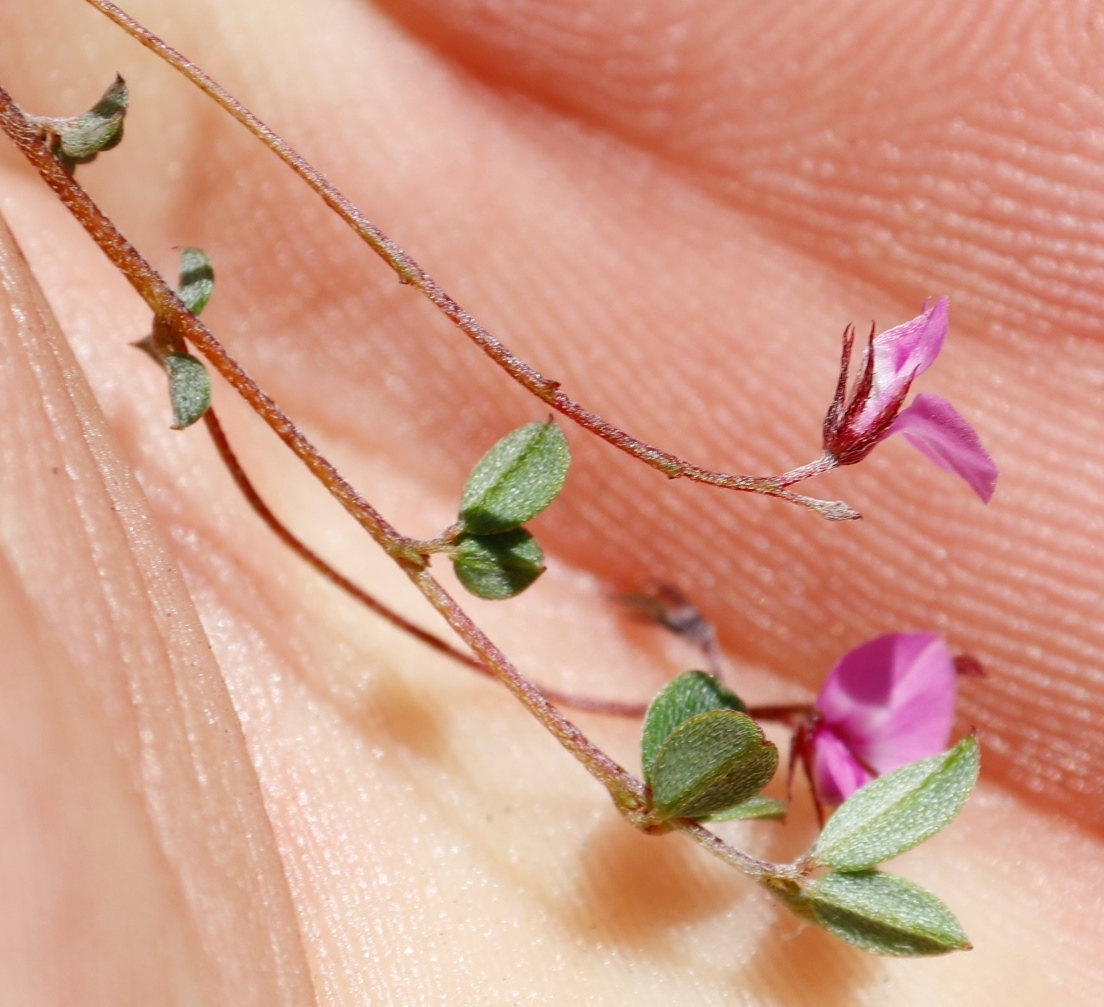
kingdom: Plantae
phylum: Tracheophyta
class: Magnoliopsida
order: Fabales
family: Fabaceae
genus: Indigofera
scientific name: Indigofera sarmentosa
